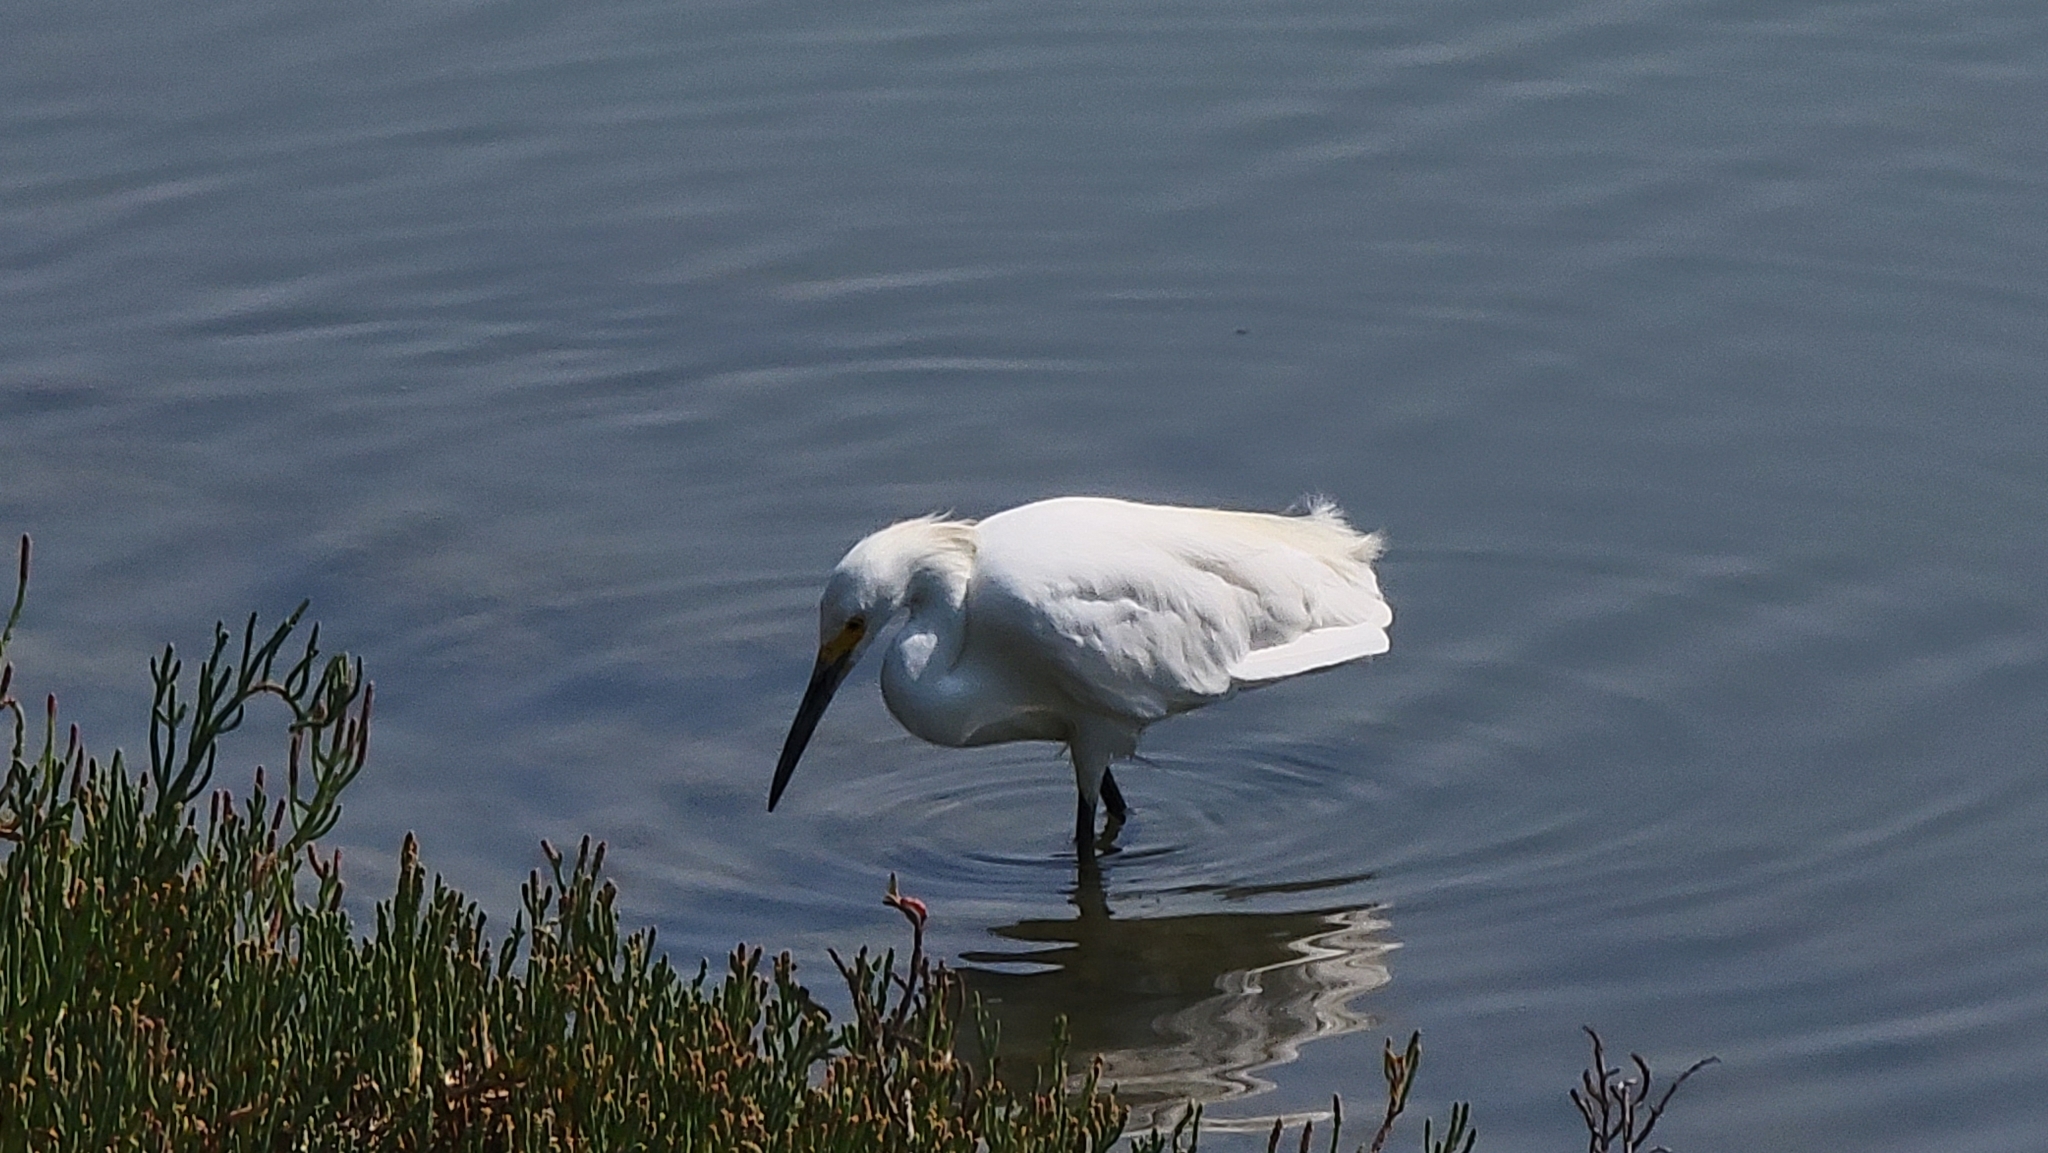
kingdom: Animalia
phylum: Chordata
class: Aves
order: Pelecaniformes
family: Ardeidae
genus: Egretta
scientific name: Egretta thula
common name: Snowy egret
